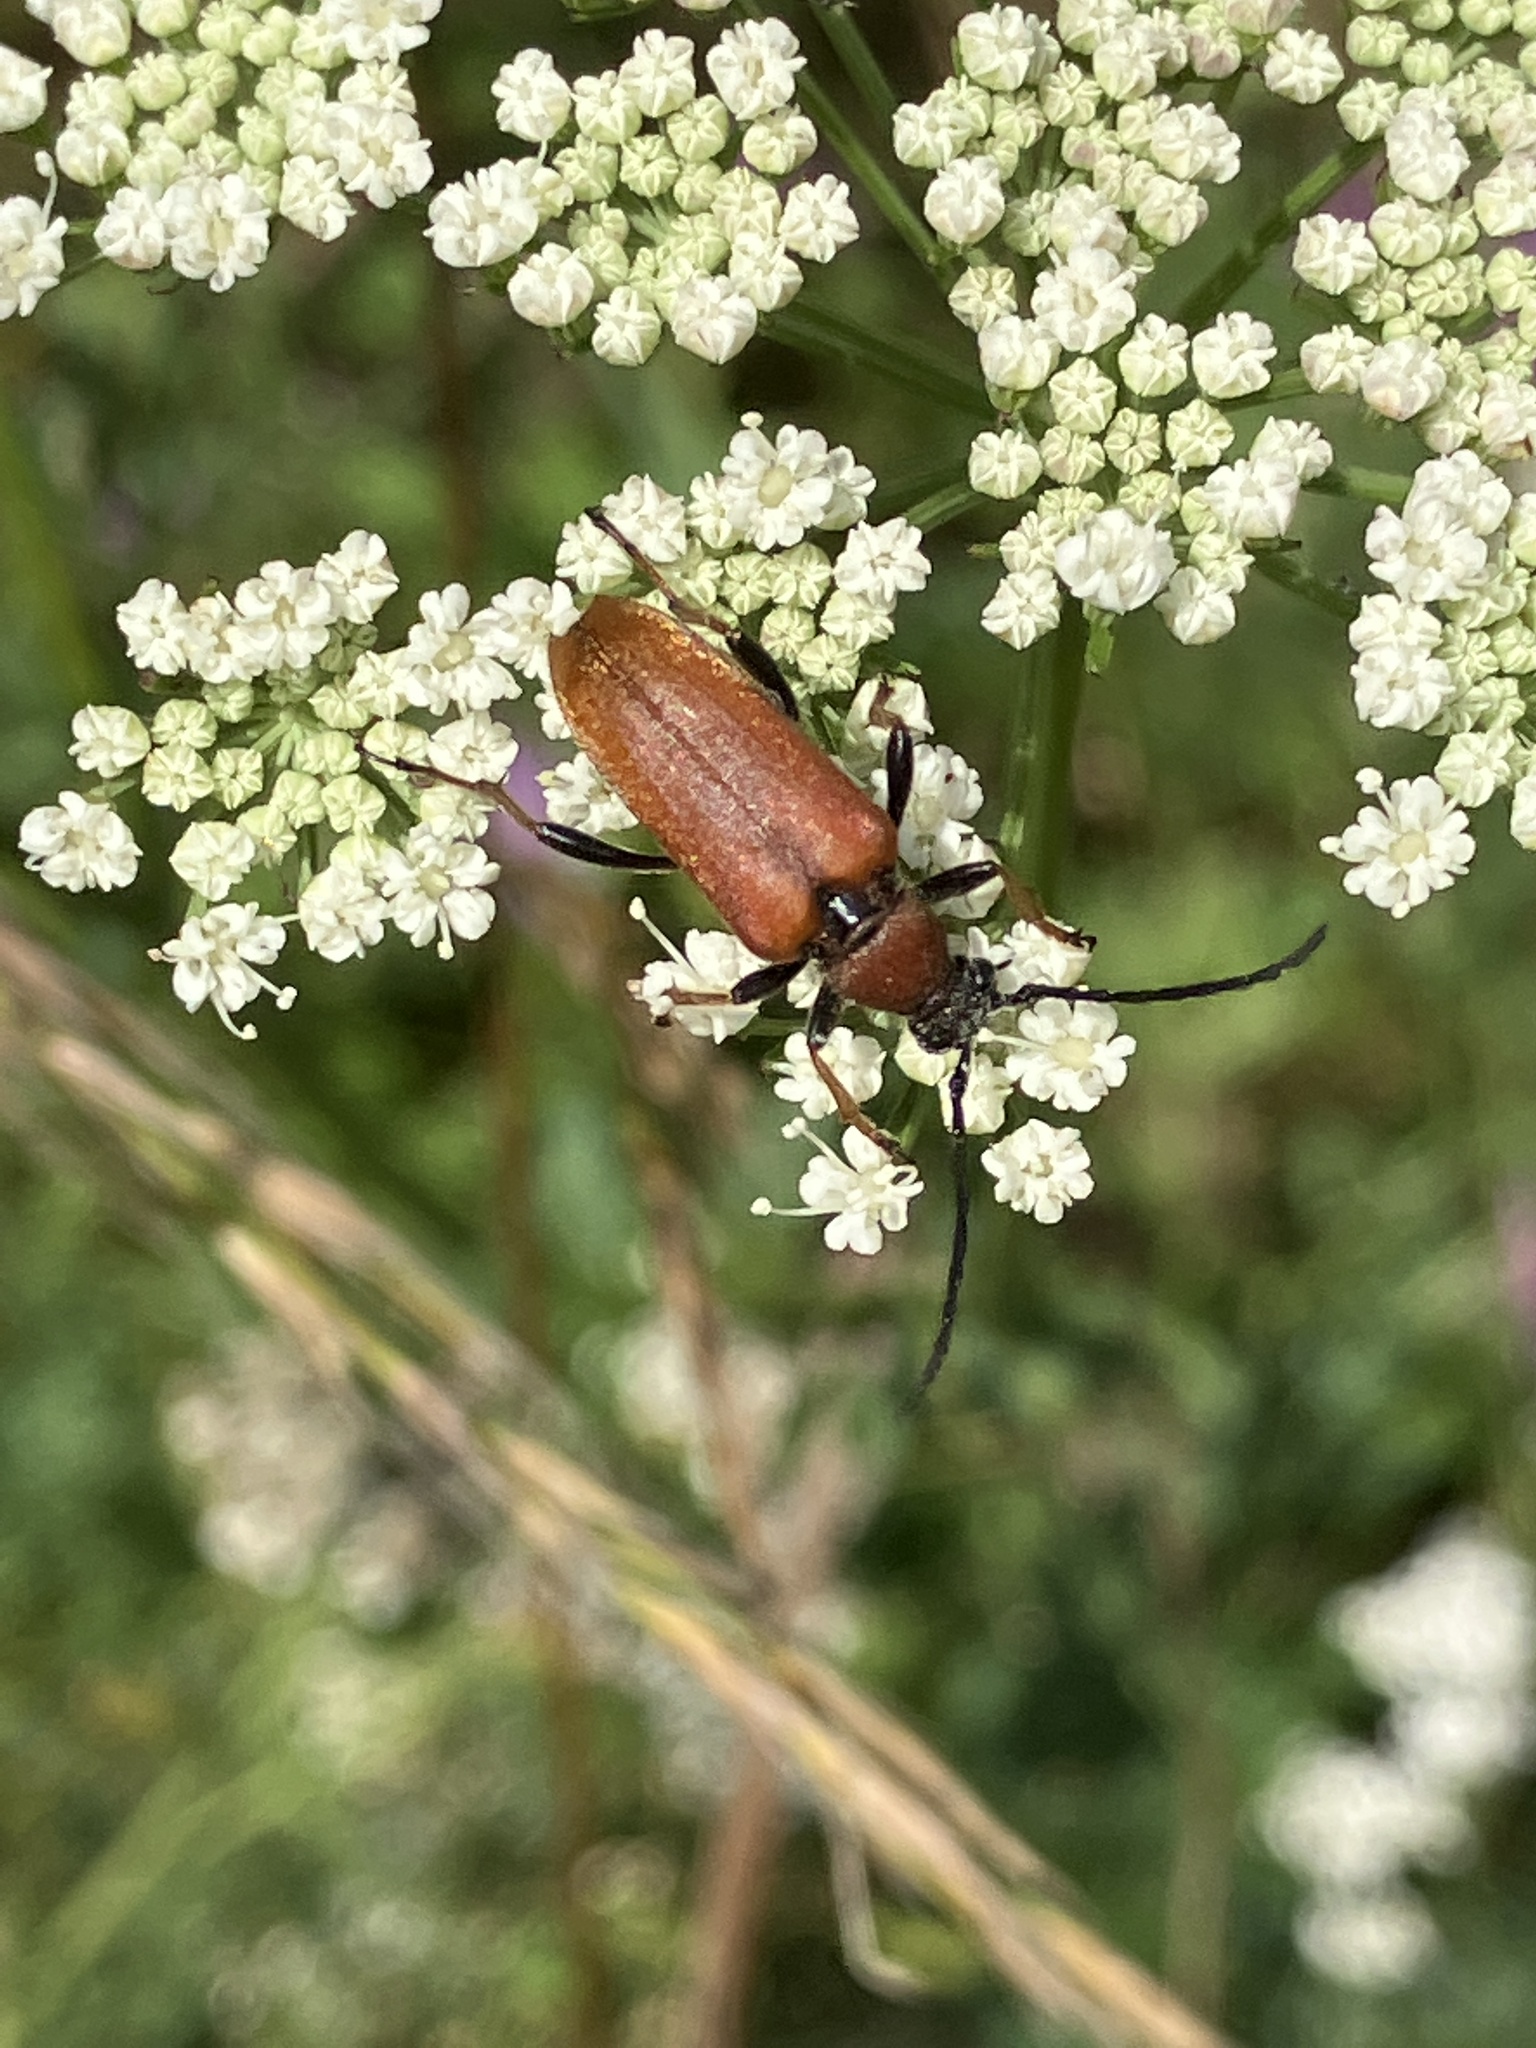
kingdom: Animalia
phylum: Arthropoda
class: Insecta
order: Coleoptera
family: Cerambycidae
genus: Stictoleptura
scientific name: Stictoleptura rubra
